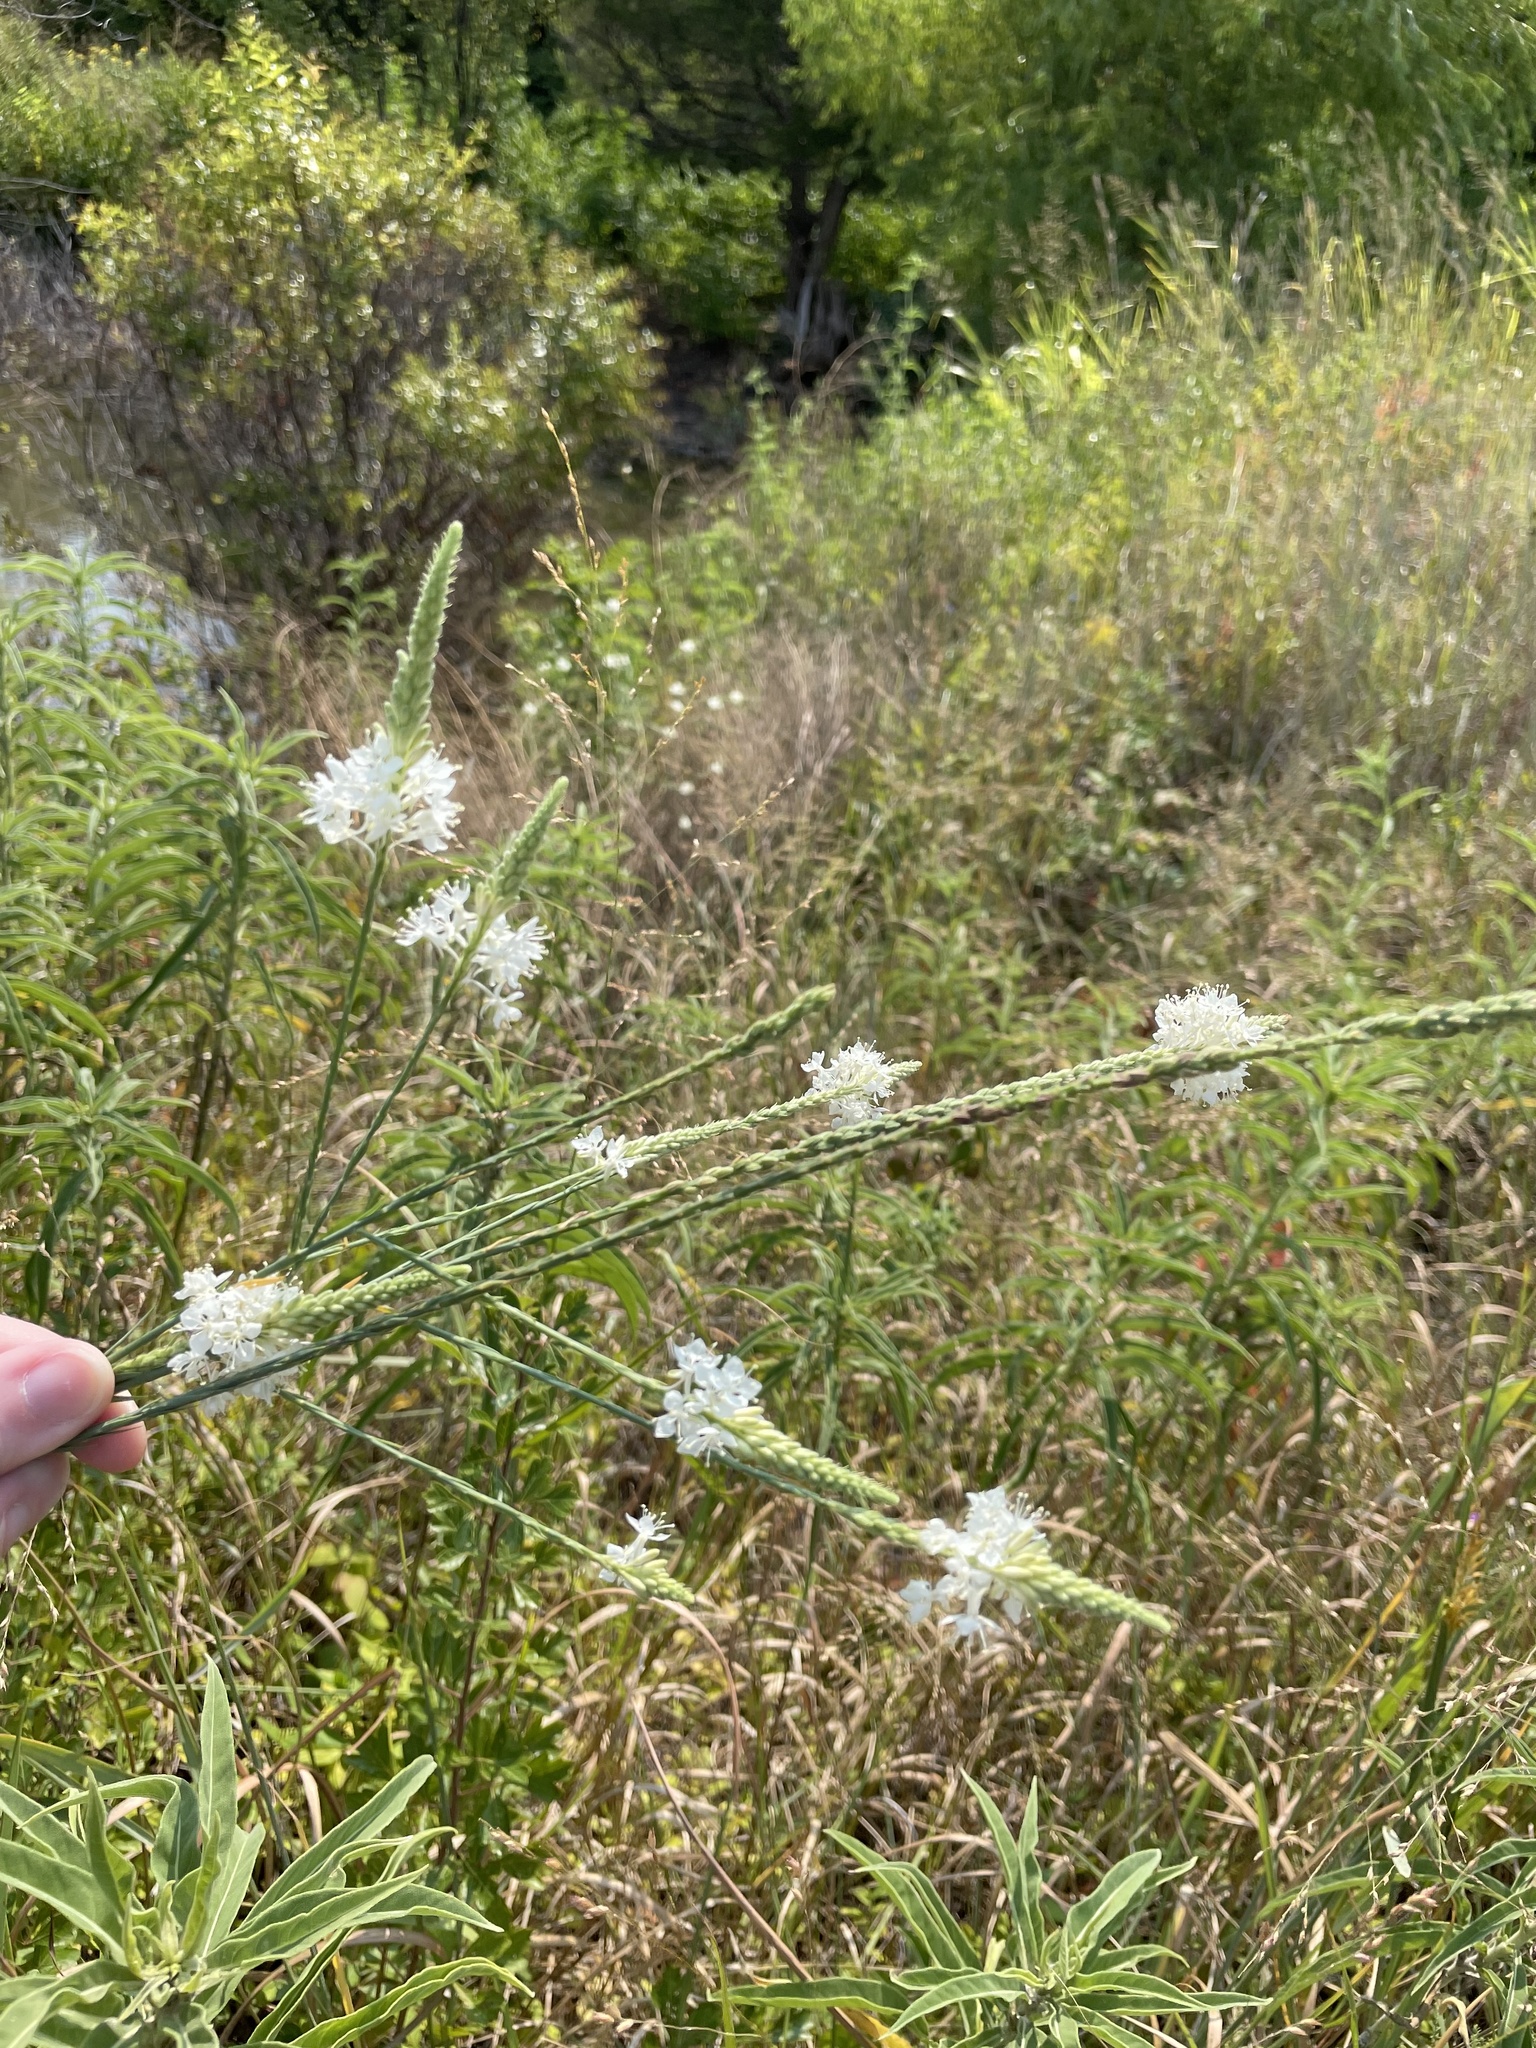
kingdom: Plantae
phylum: Tracheophyta
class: Magnoliopsida
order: Myrtales
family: Onagraceae
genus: Oenothera
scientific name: Oenothera glaucifolia
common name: False gaura
